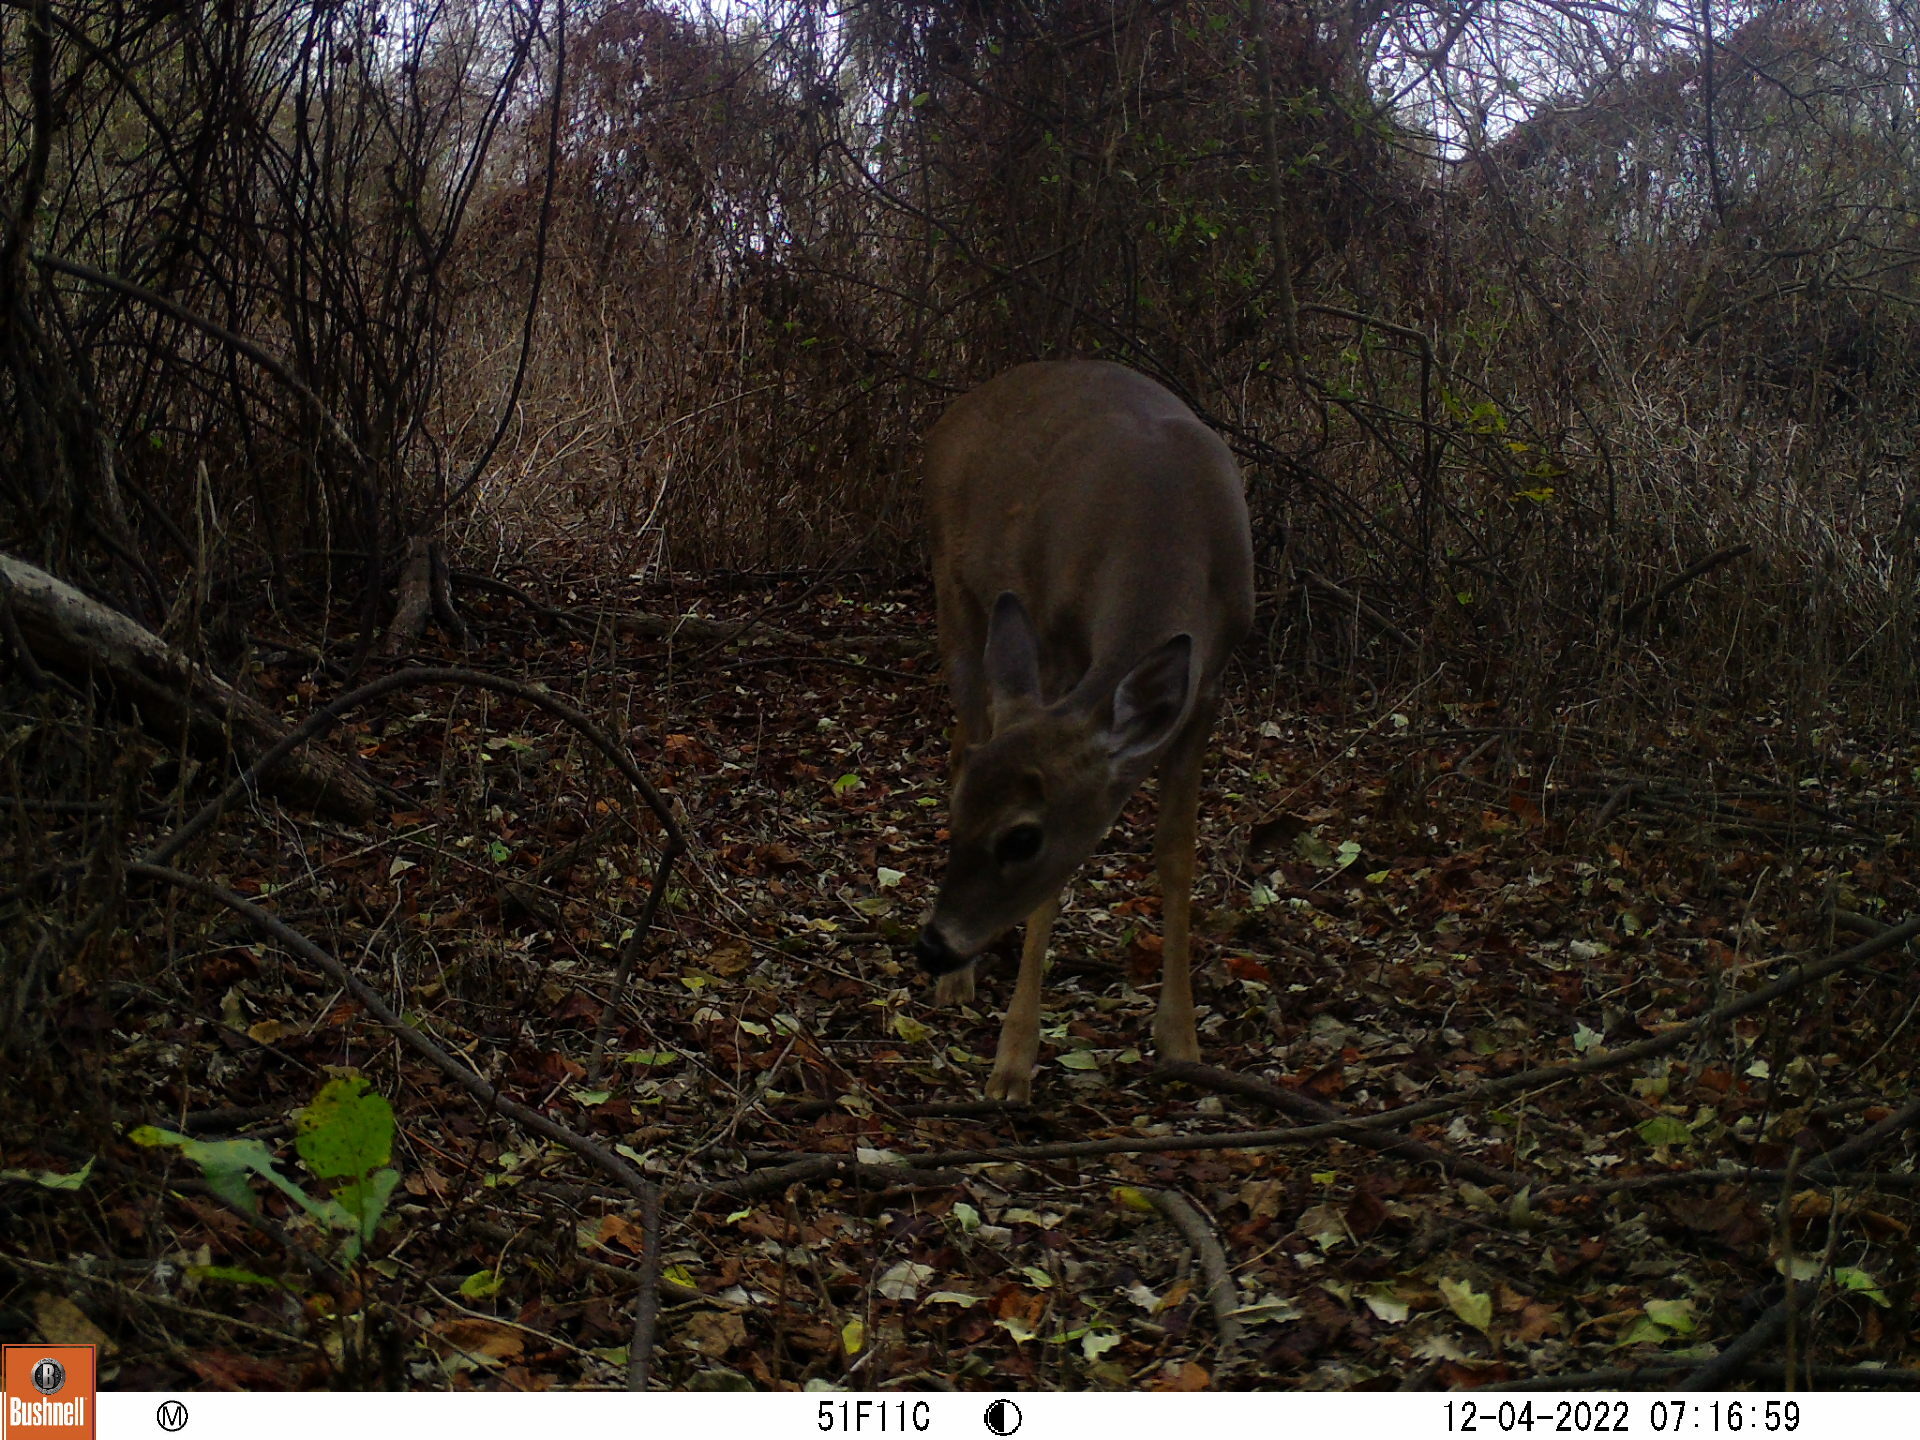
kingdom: Animalia
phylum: Chordata
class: Mammalia
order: Artiodactyla
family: Cervidae
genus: Odocoileus
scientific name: Odocoileus virginianus
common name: White-tailed deer
